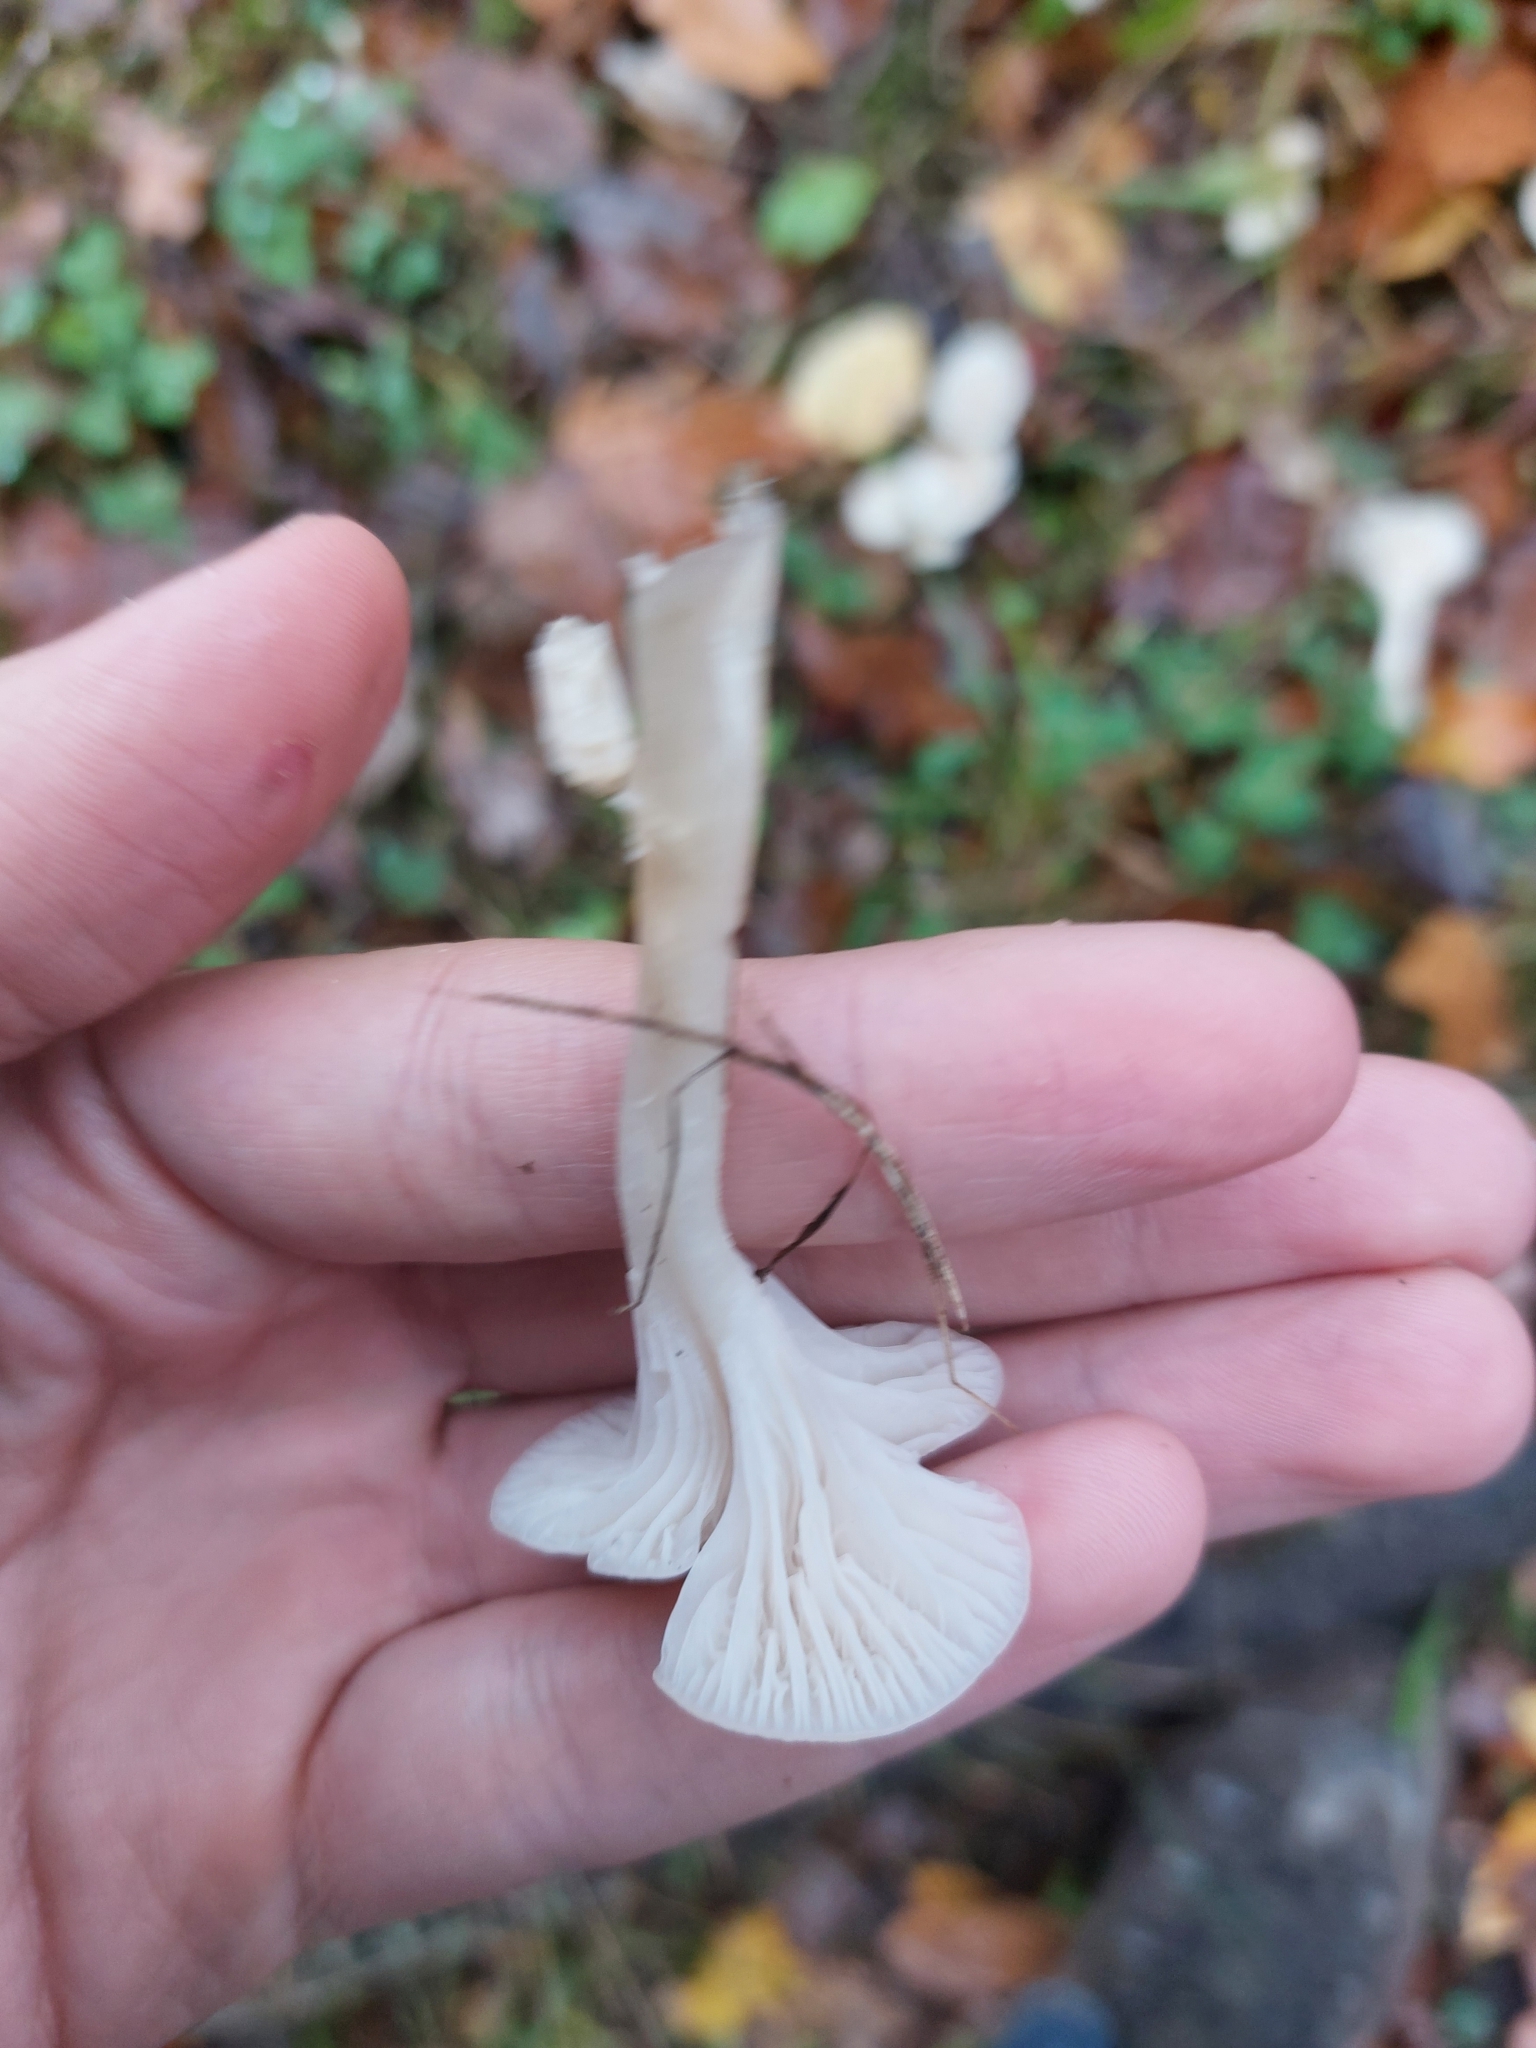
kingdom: Fungi
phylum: Basidiomycota
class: Agaricomycetes
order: Agaricales
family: Hygrophoraceae
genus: Cuphophyllus
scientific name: Cuphophyllus virgineus
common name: Snowy waxcap
